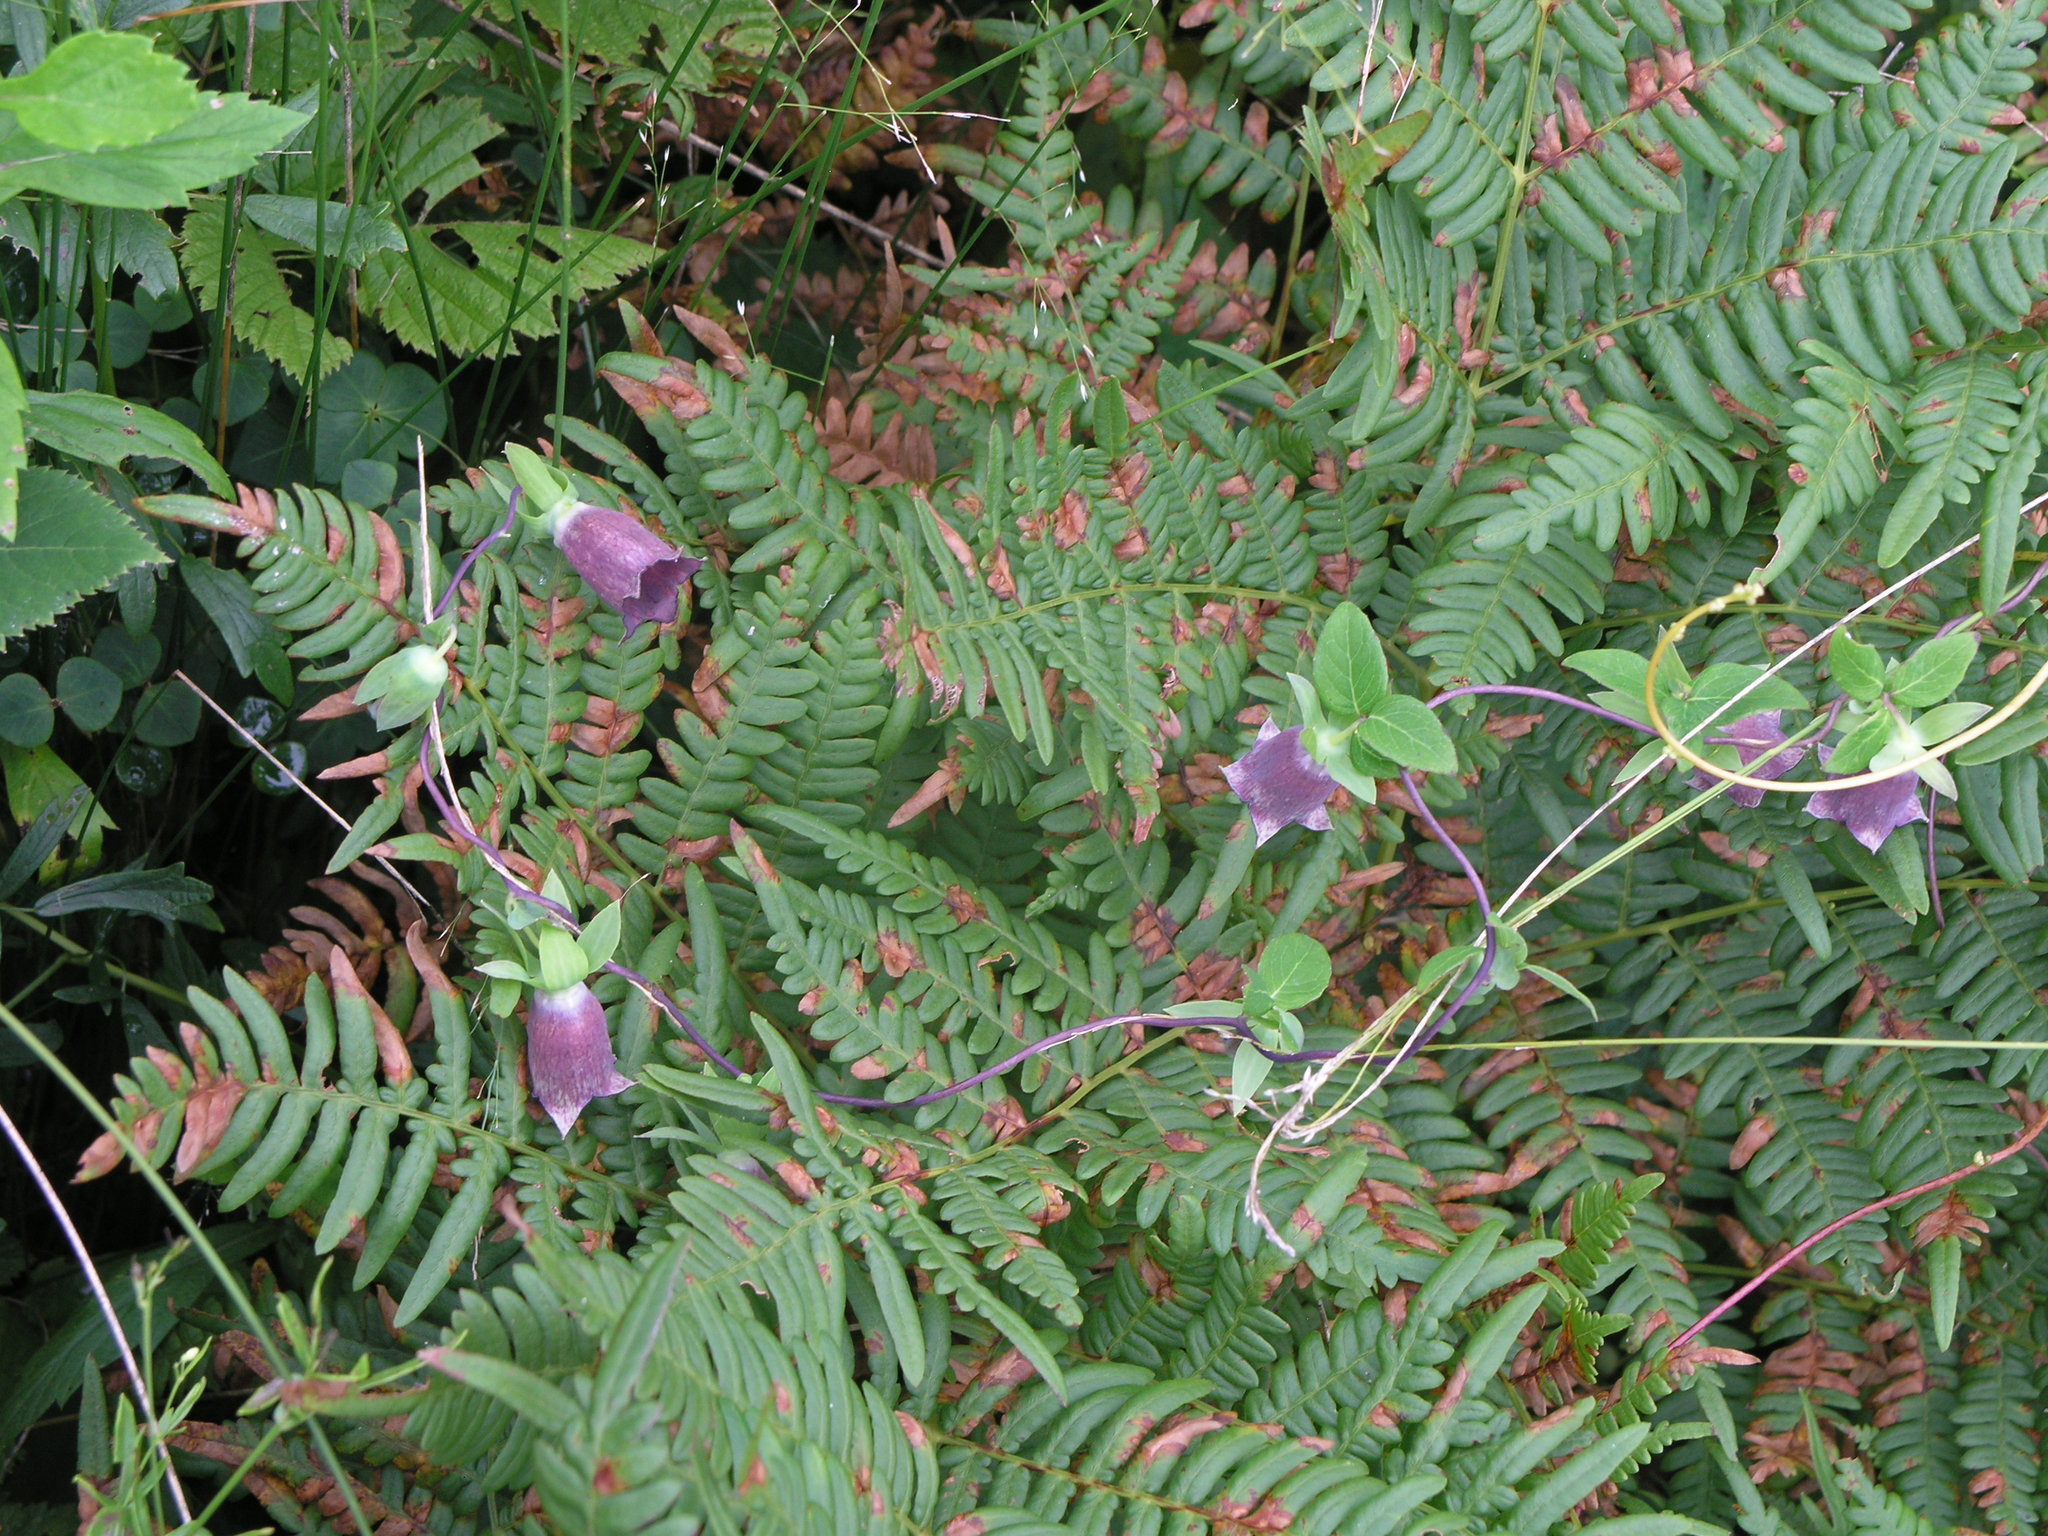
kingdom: Plantae
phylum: Tracheophyta
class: Polypodiopsida
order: Polypodiales
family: Dennstaedtiaceae
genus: Pteridium
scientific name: Pteridium aquilinum
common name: Bracken
